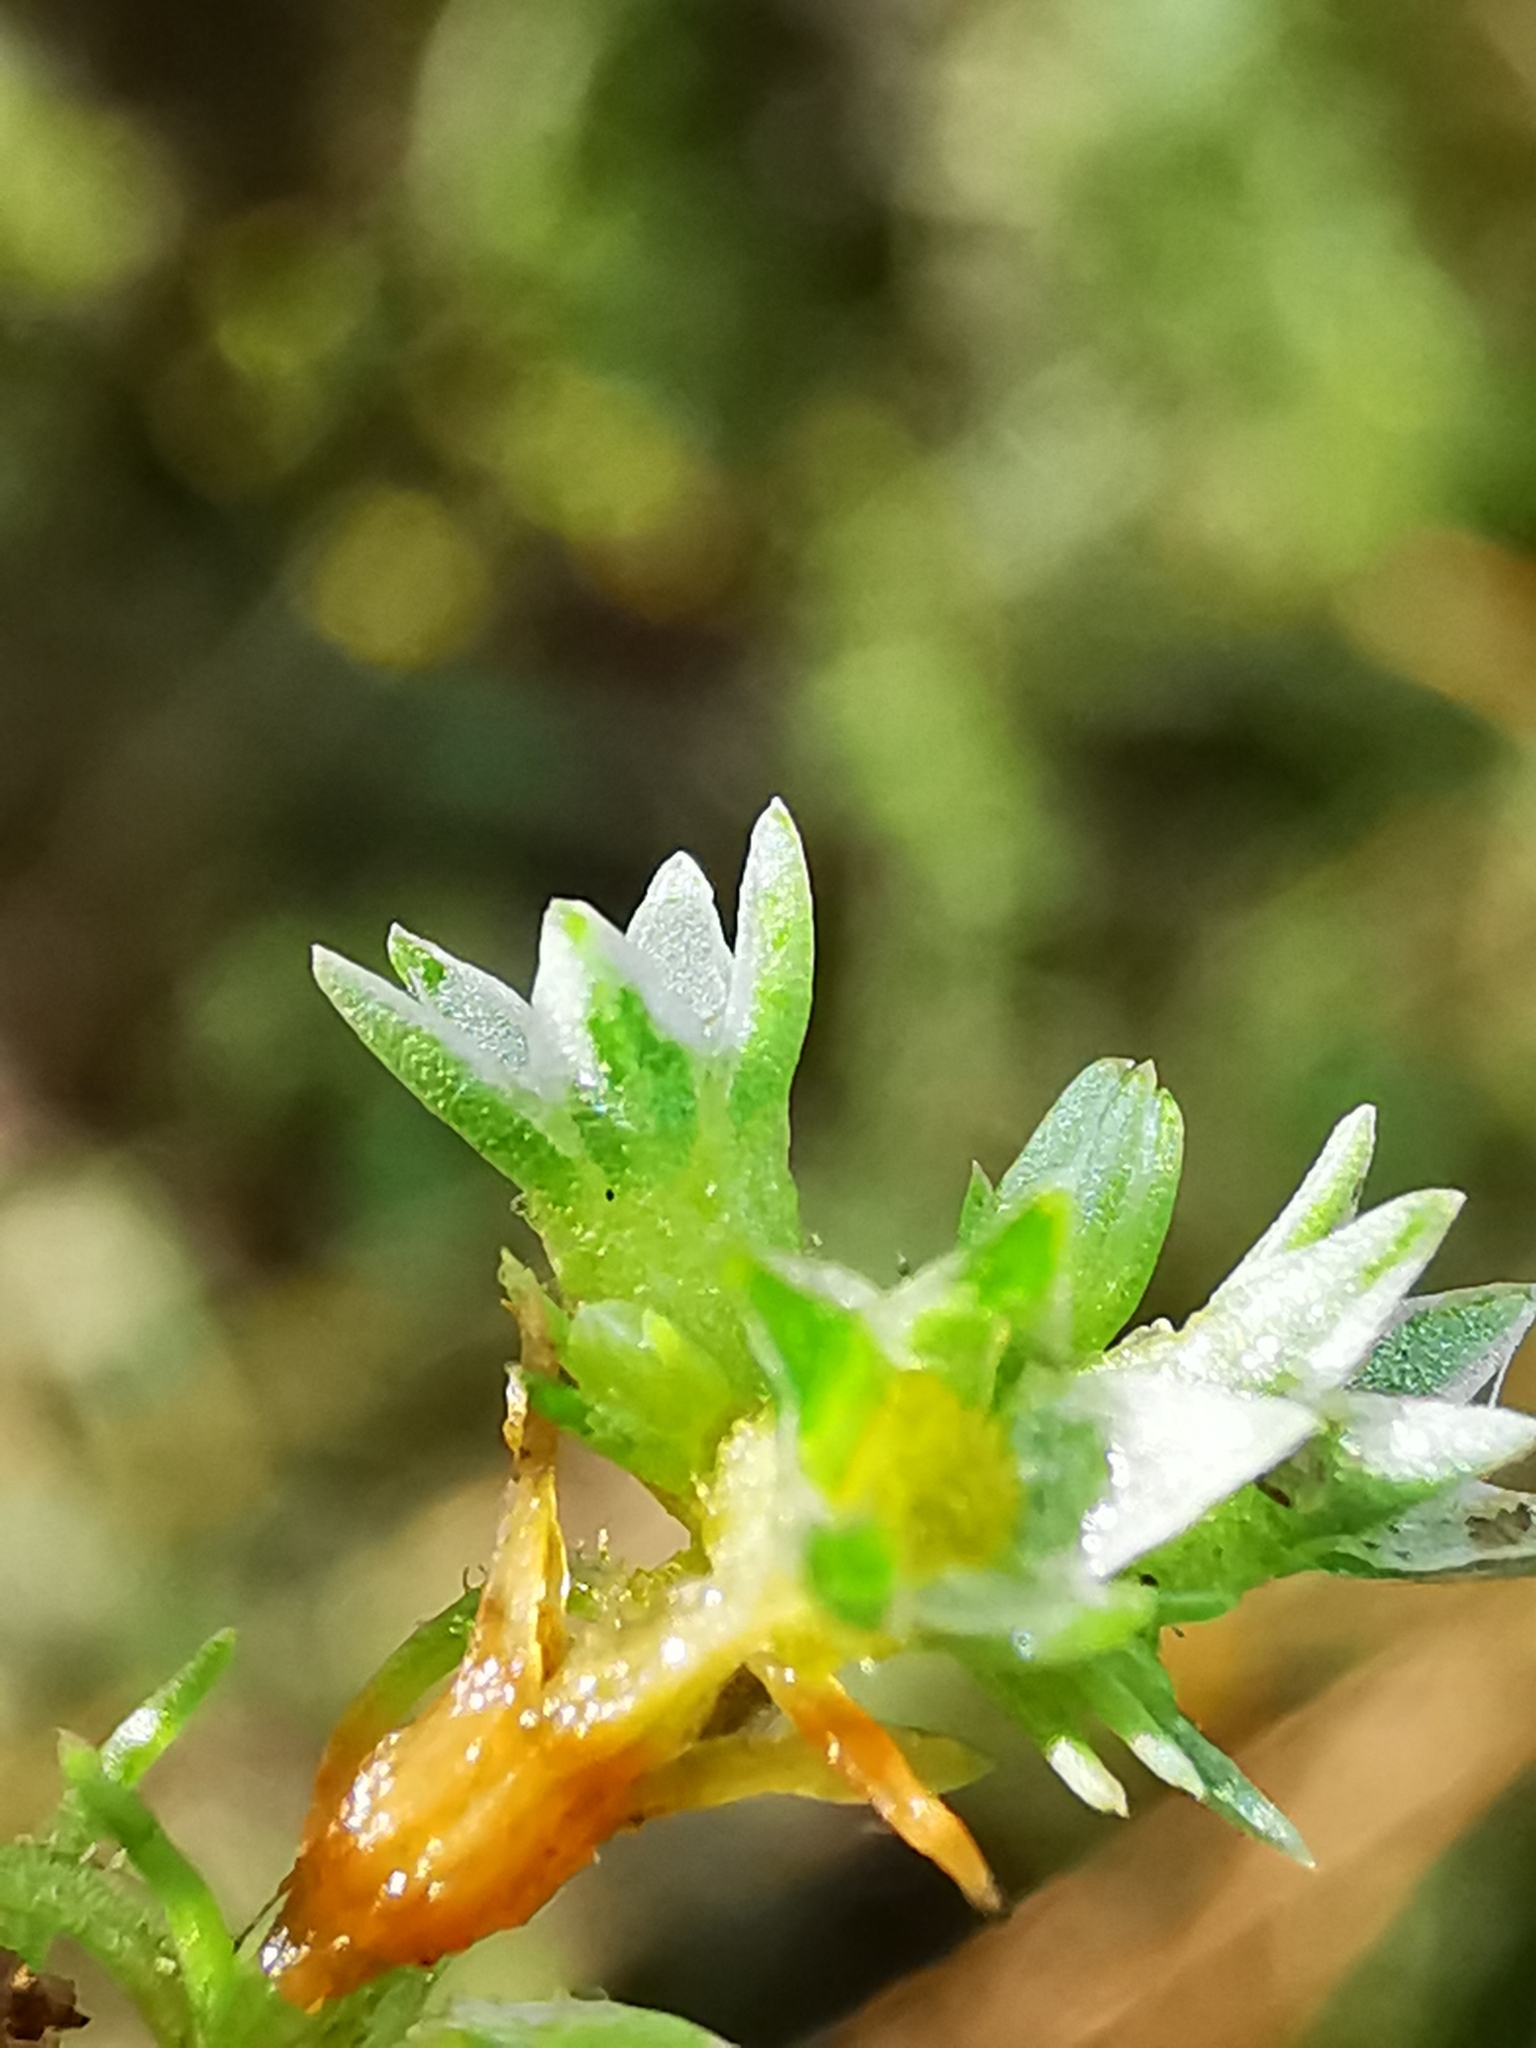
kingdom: Plantae
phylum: Tracheophyta
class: Magnoliopsida
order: Caryophyllales
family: Caryophyllaceae
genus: Scleranthus
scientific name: Scleranthus annuus
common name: Annual knawel
